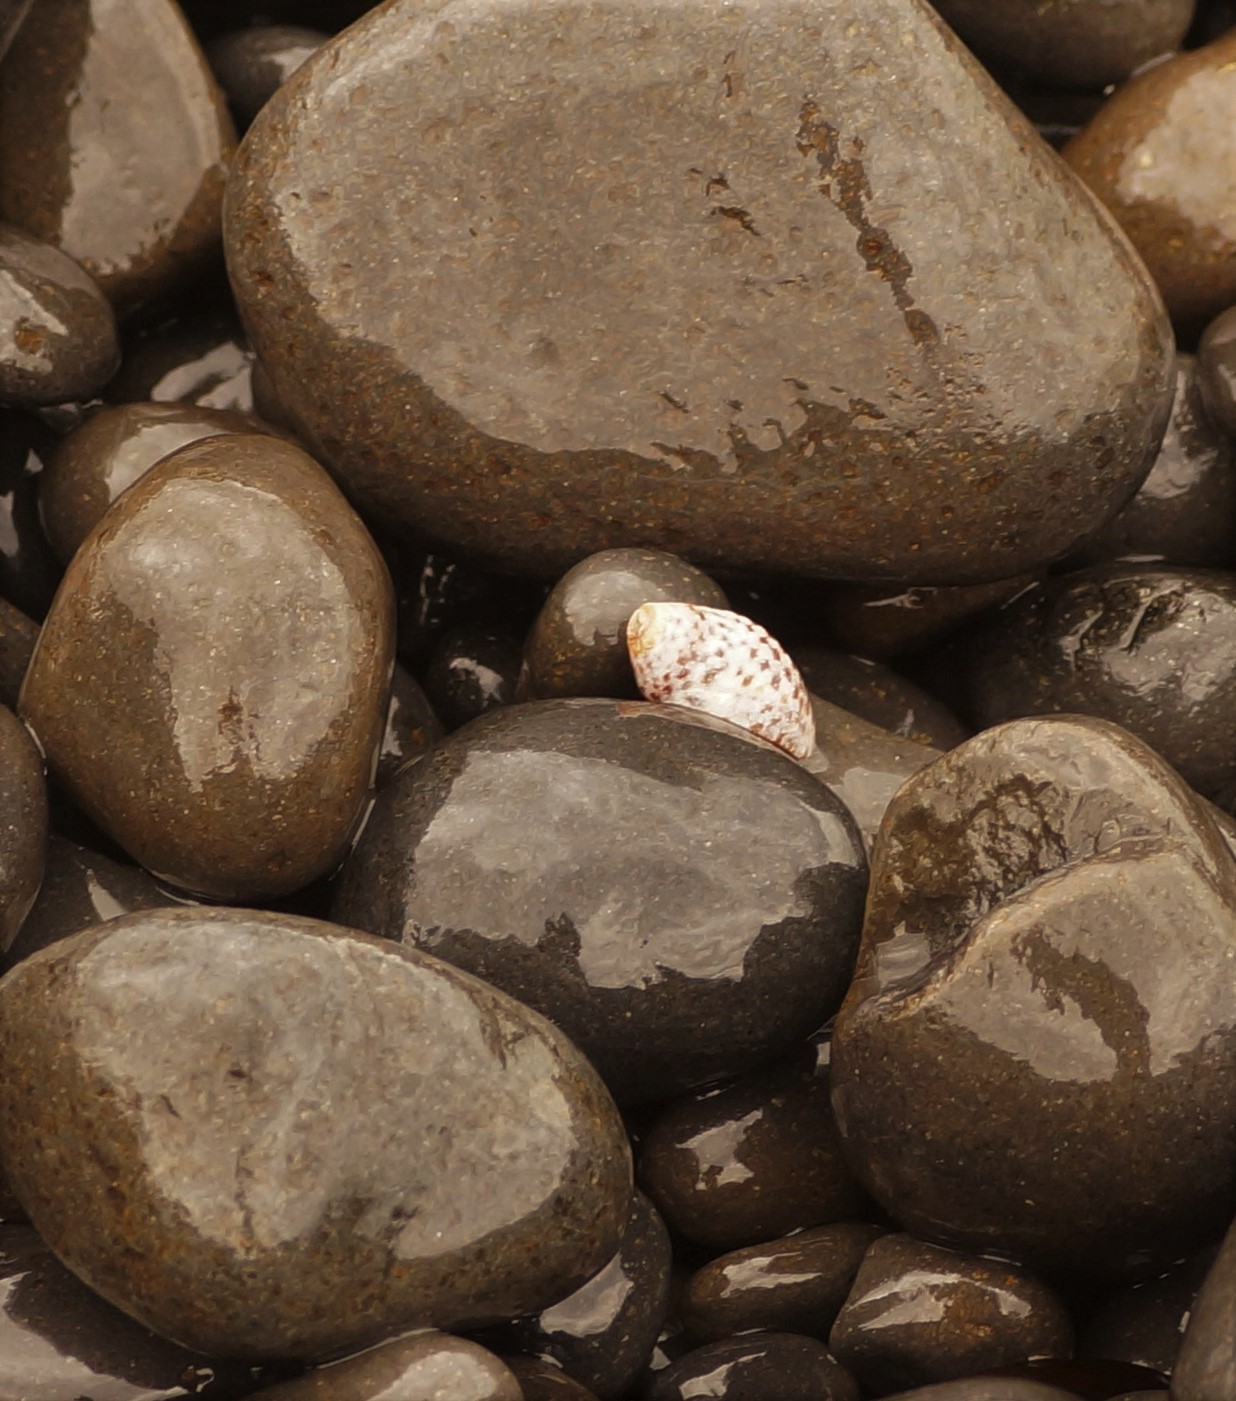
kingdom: Animalia
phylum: Mollusca
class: Gastropoda
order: Neogastropoda
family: Cominellidae
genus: Cominella
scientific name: Cominella lineolata
